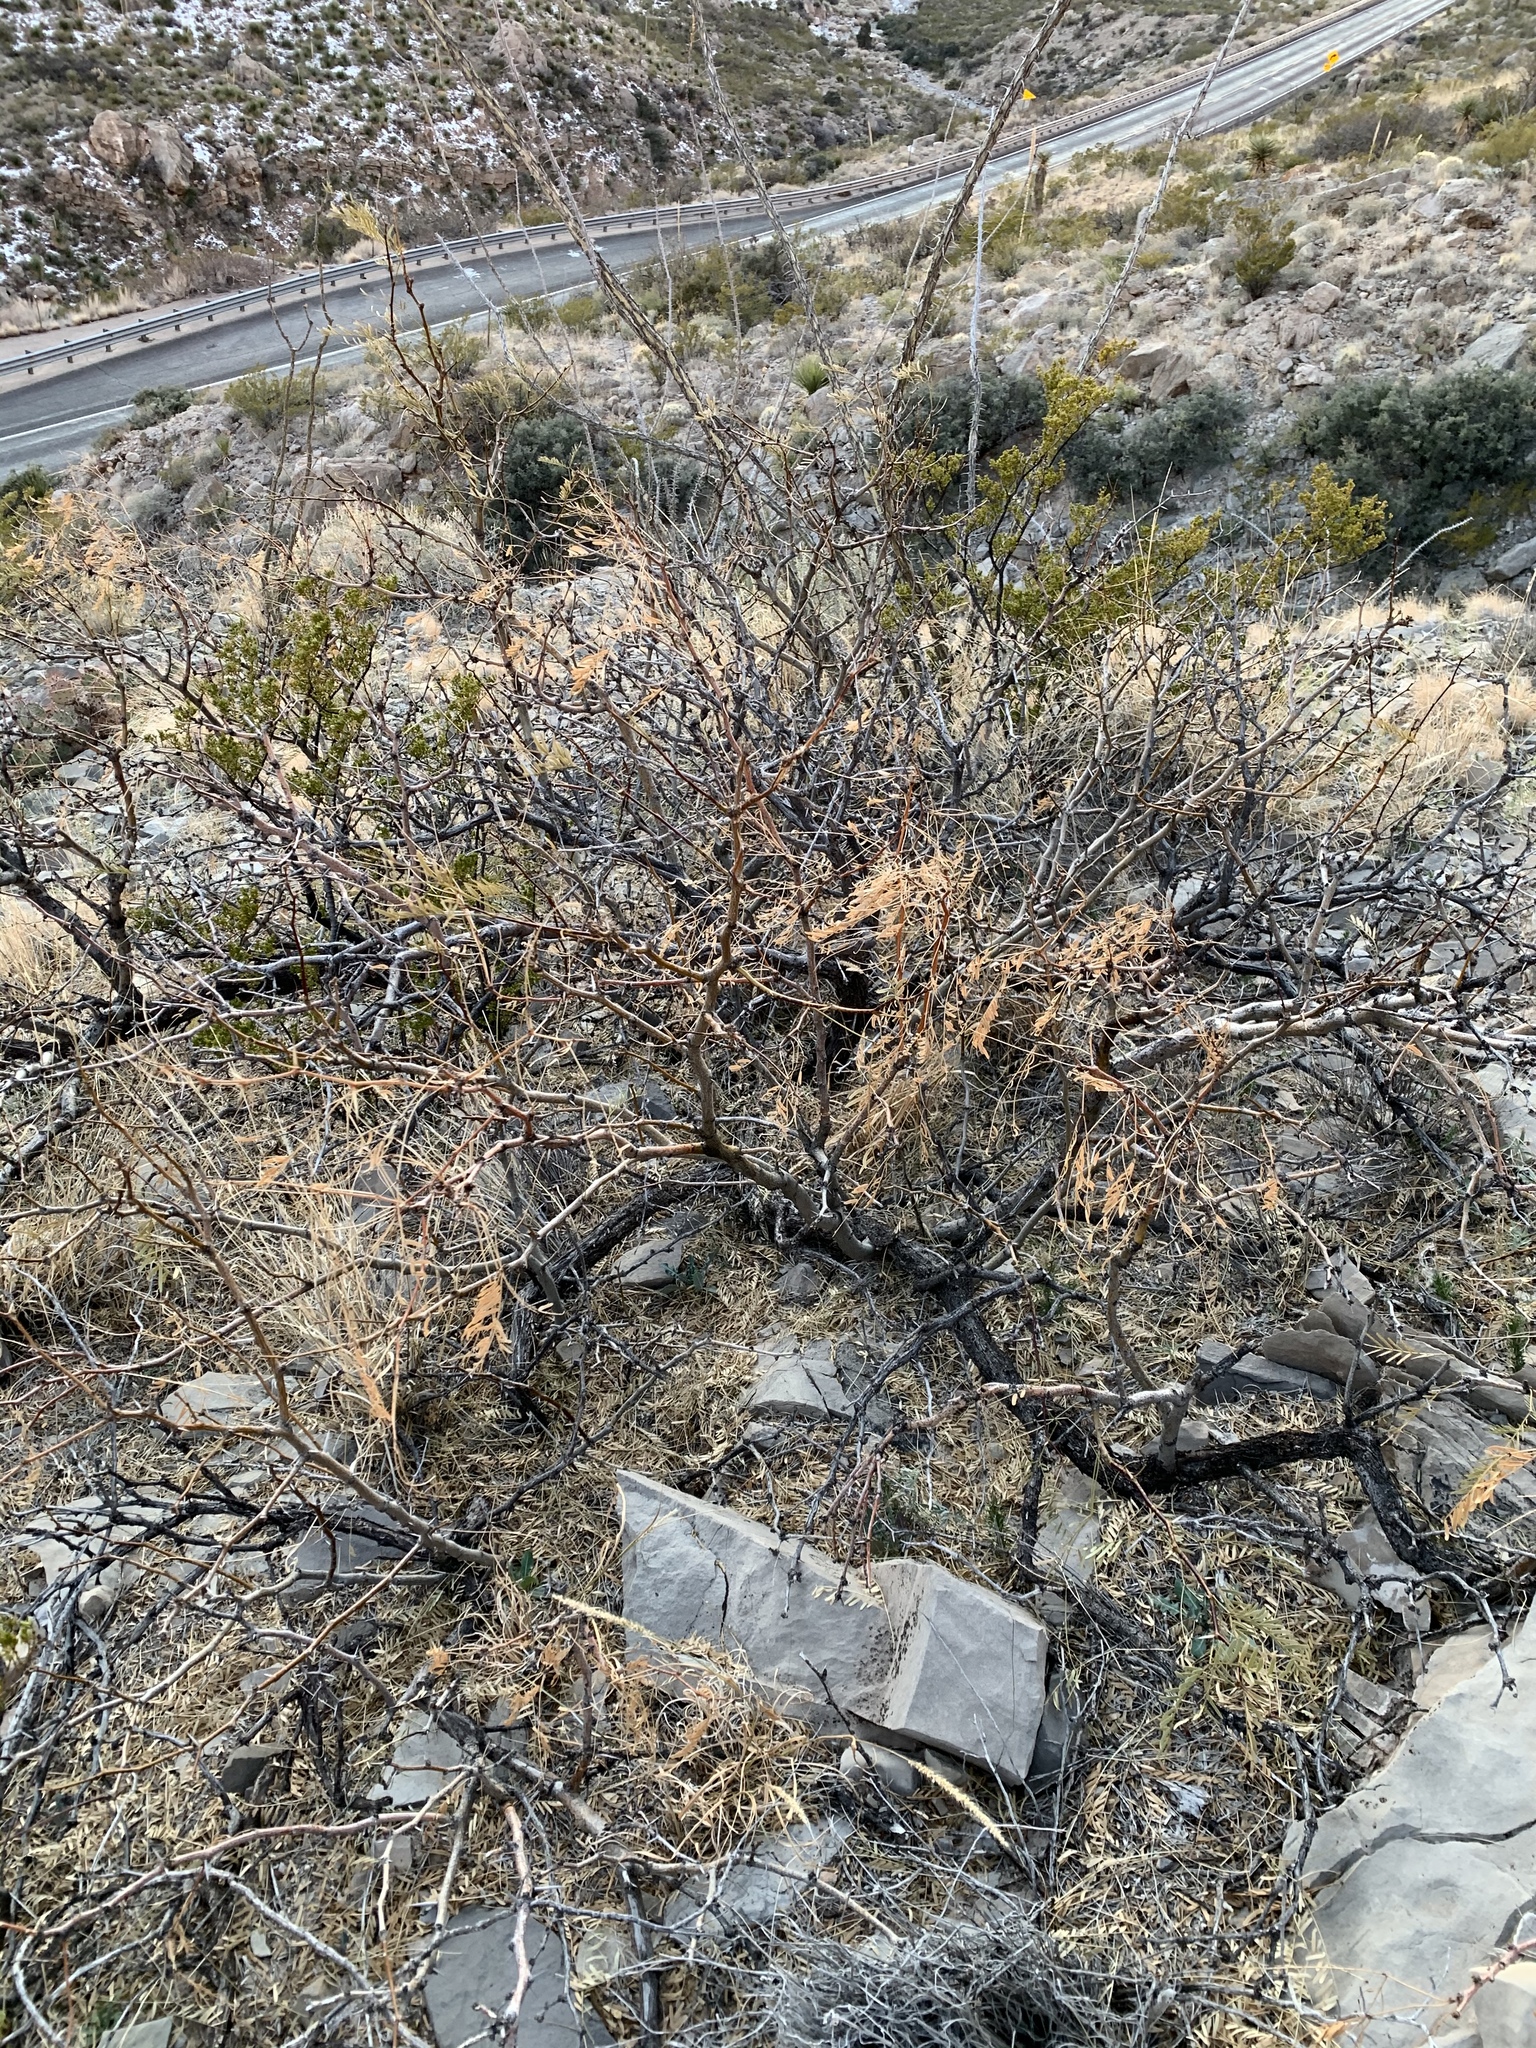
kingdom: Plantae
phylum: Tracheophyta
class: Magnoliopsida
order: Fabales
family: Fabaceae
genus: Prosopis
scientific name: Prosopis glandulosa
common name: Honey mesquite
